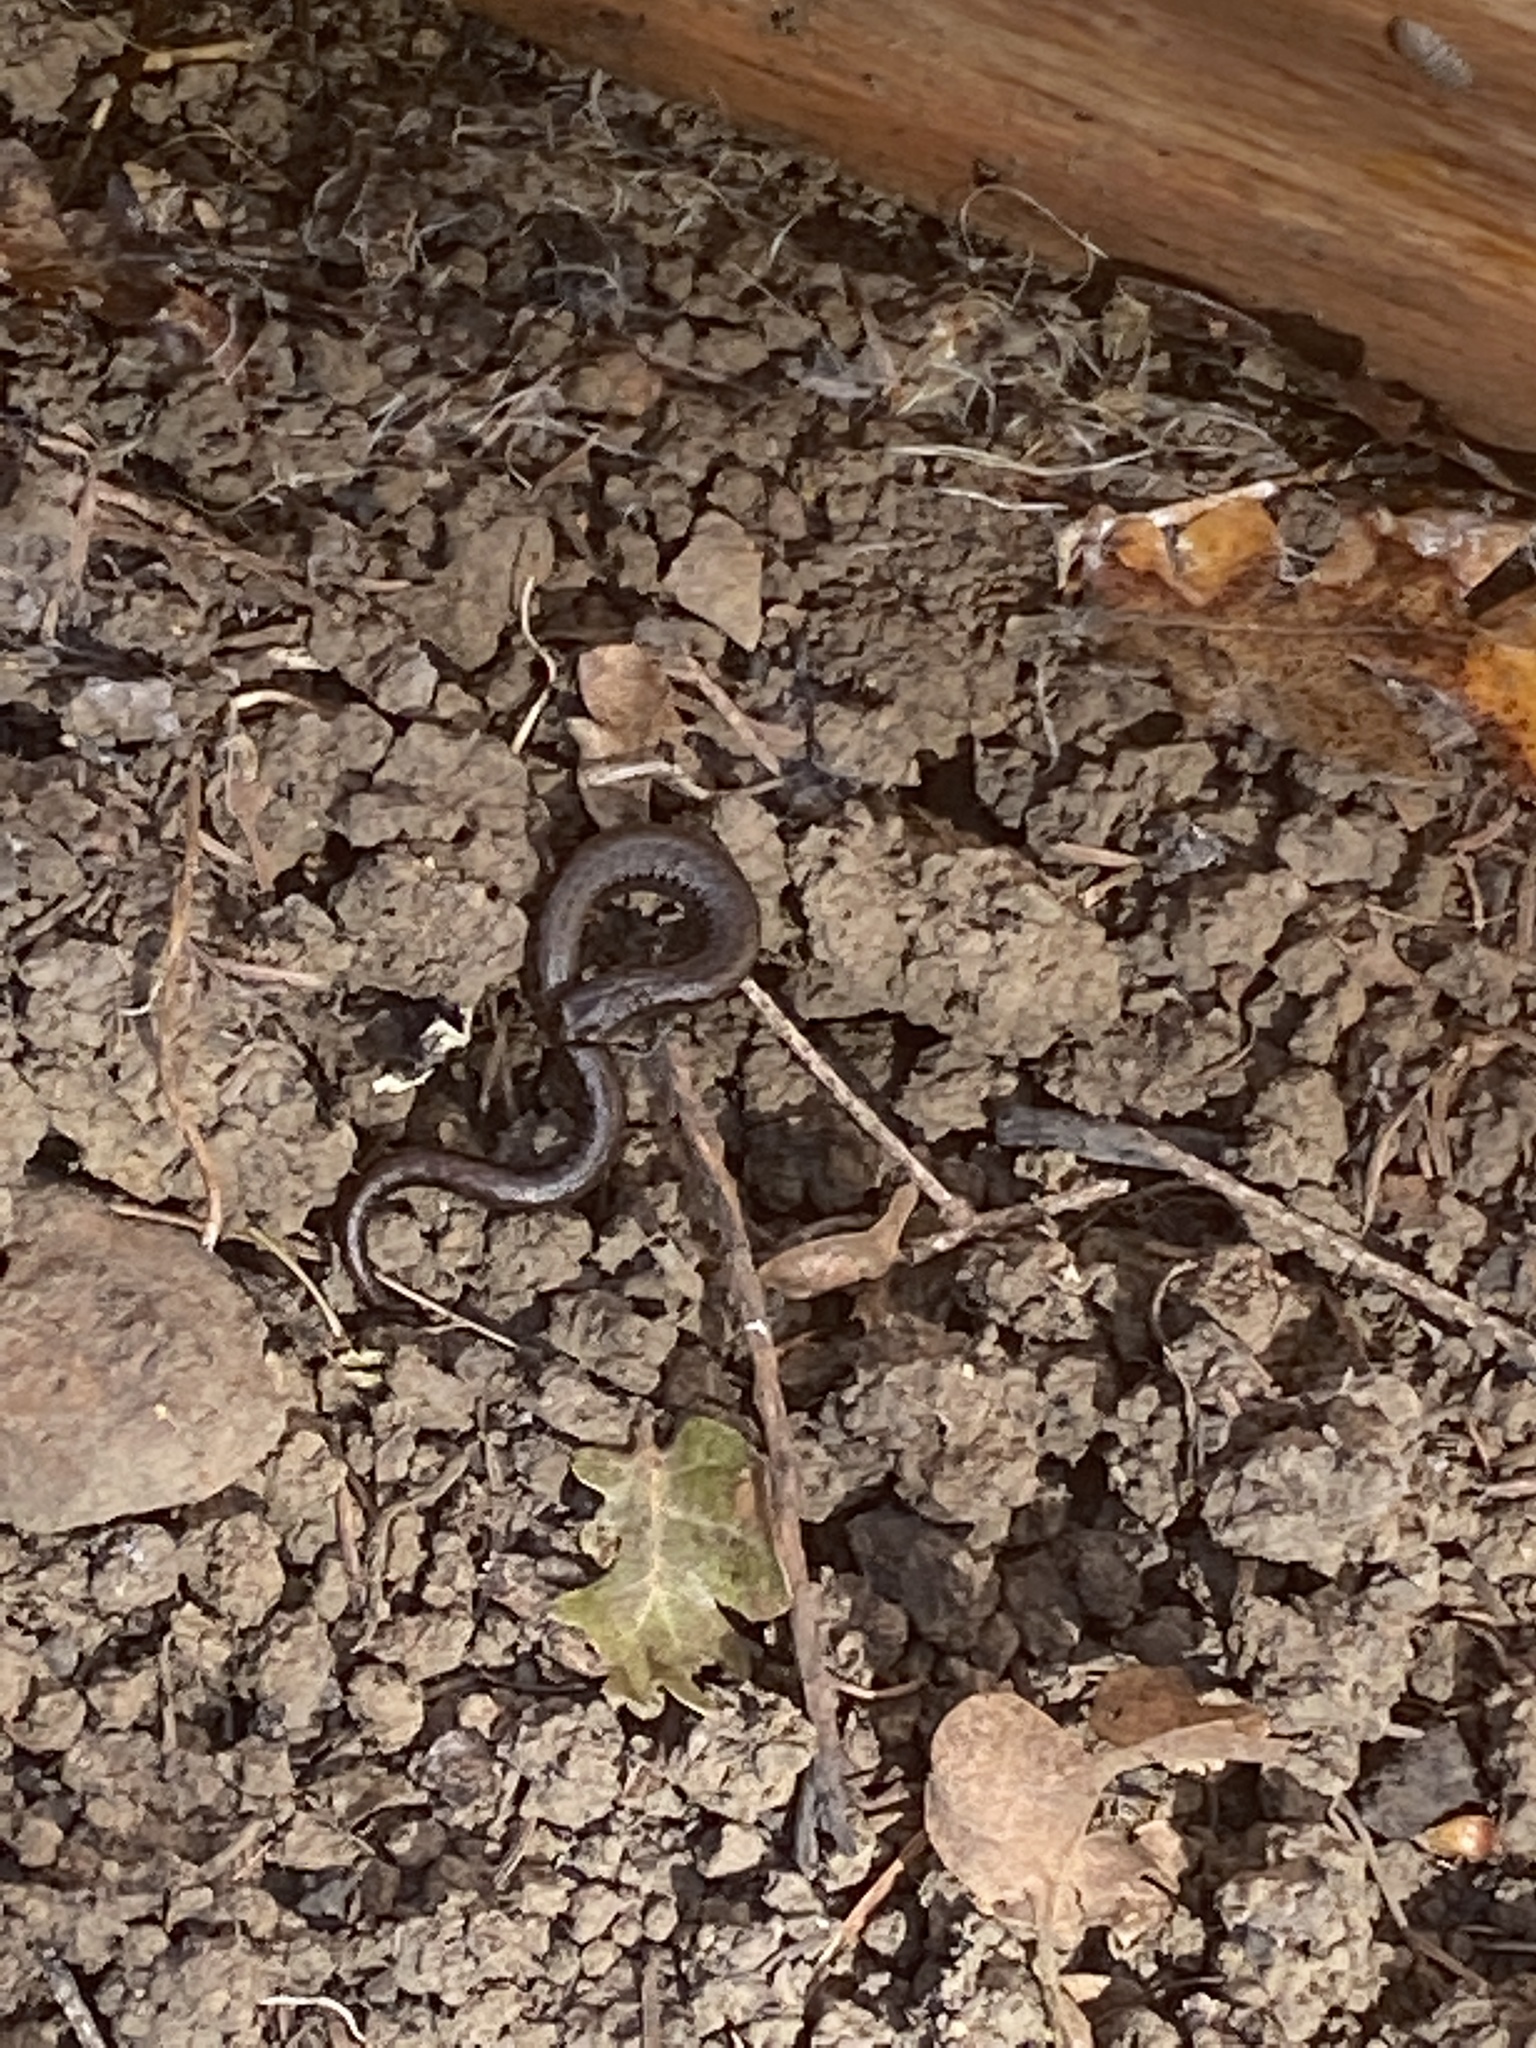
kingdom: Animalia
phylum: Chordata
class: Amphibia
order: Caudata
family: Plethodontidae
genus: Batrachoseps
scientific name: Batrachoseps attenuatus
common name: California slender salamander
